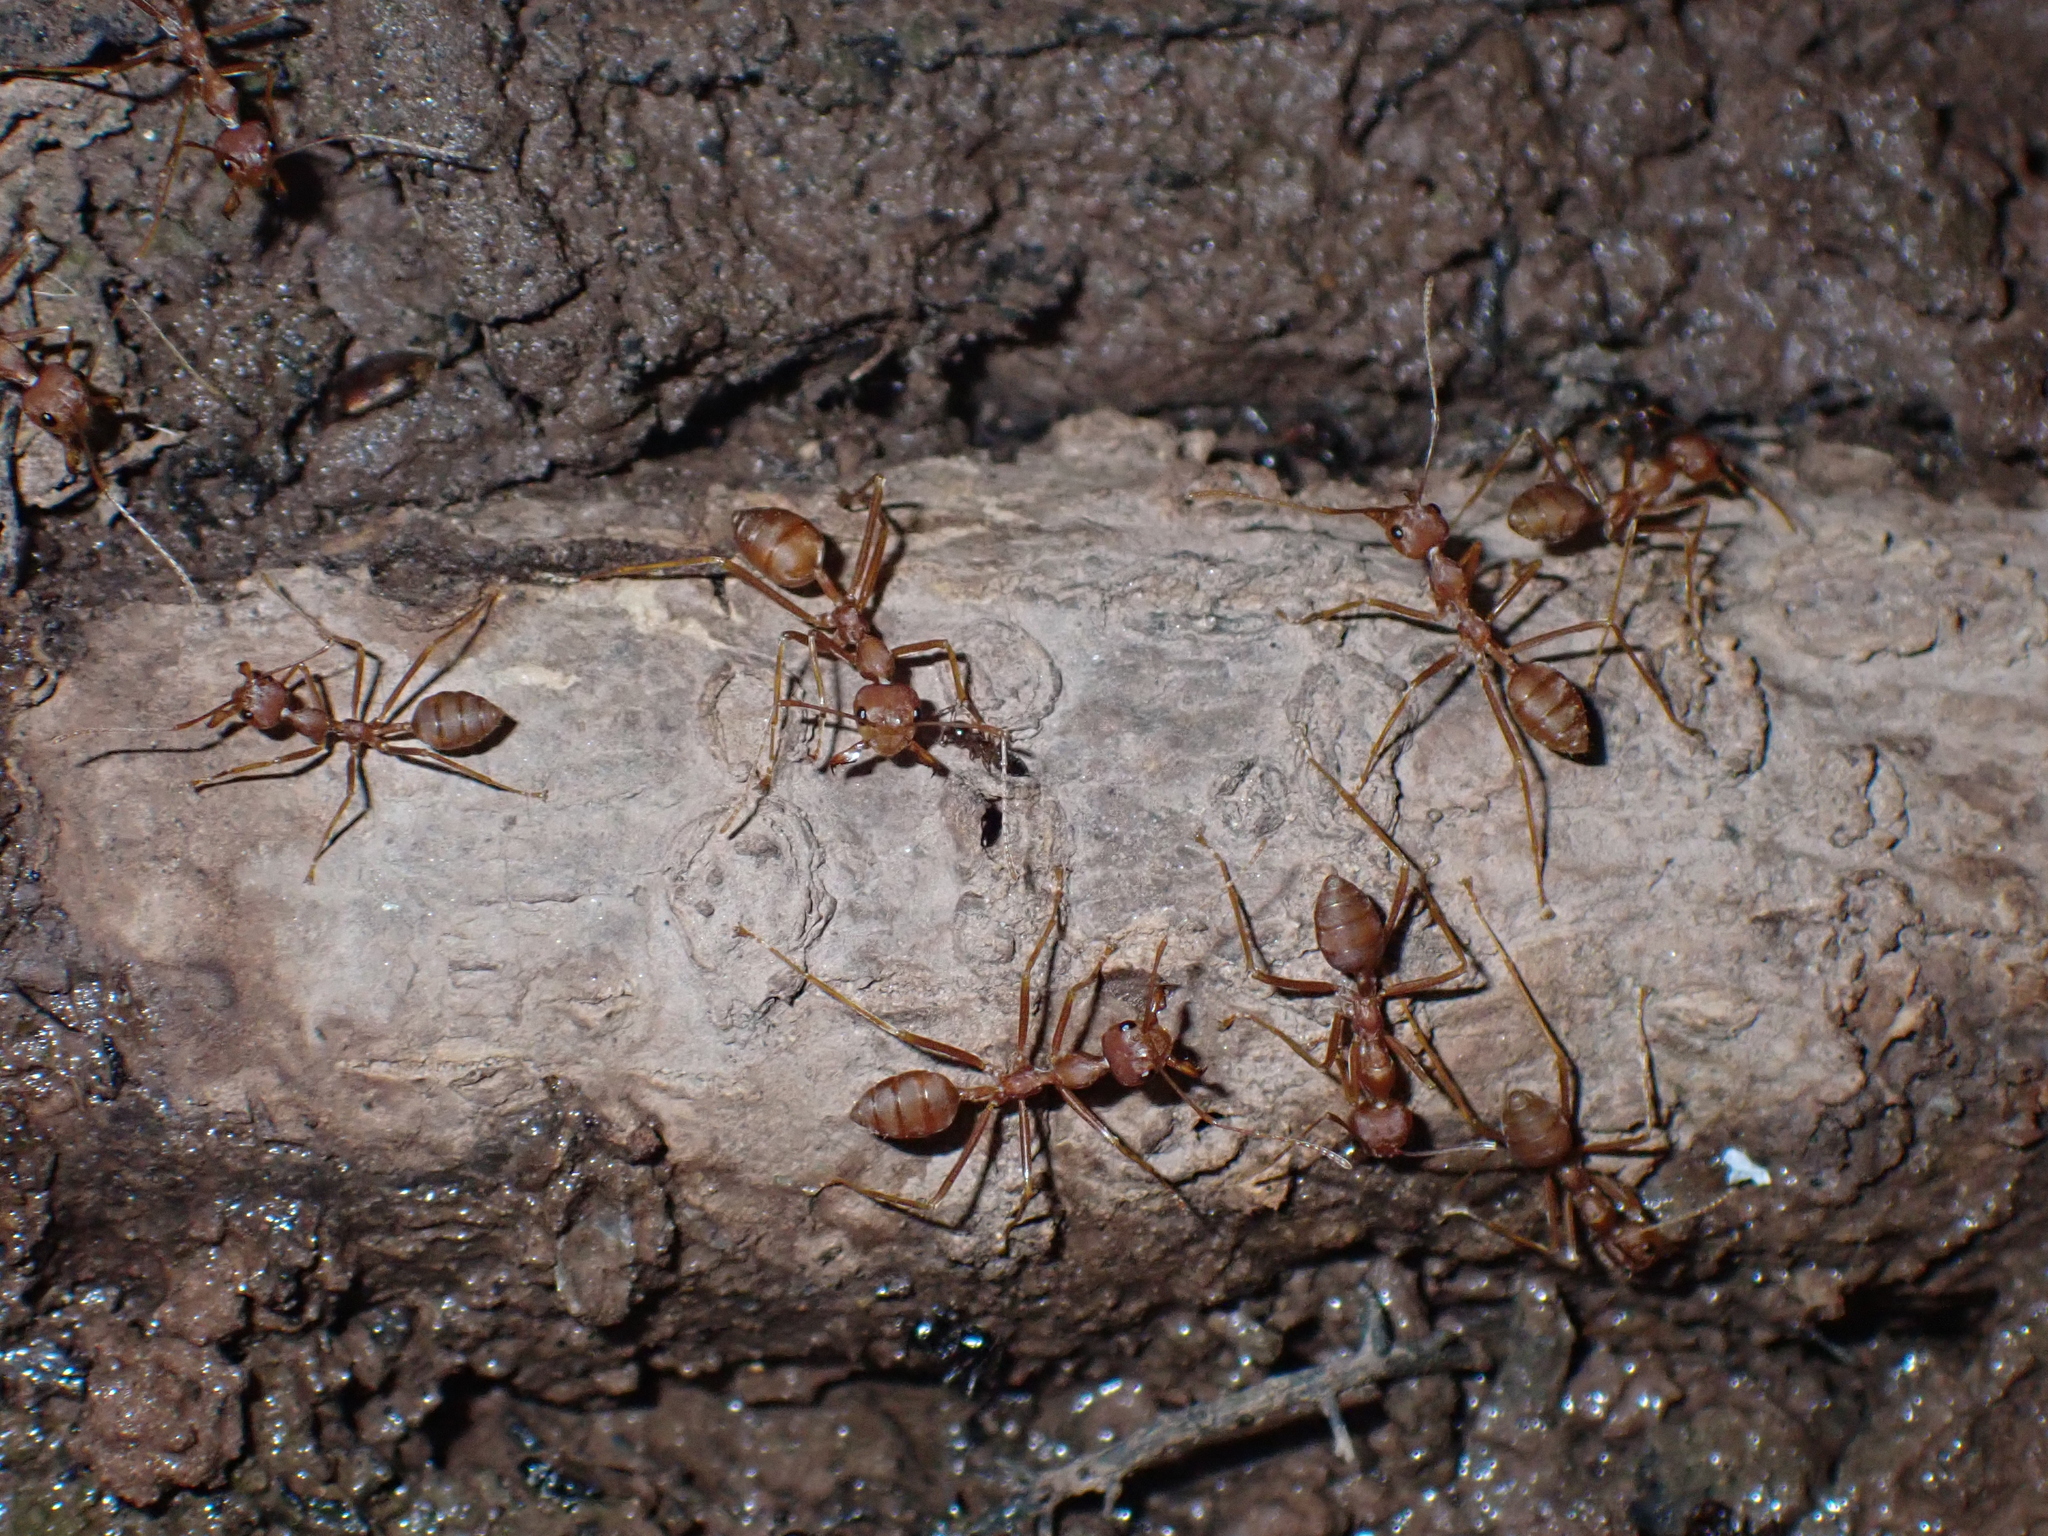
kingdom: Animalia
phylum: Arthropoda
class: Insecta
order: Hymenoptera
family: Formicidae
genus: Oecophylla
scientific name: Oecophylla smaragdina
